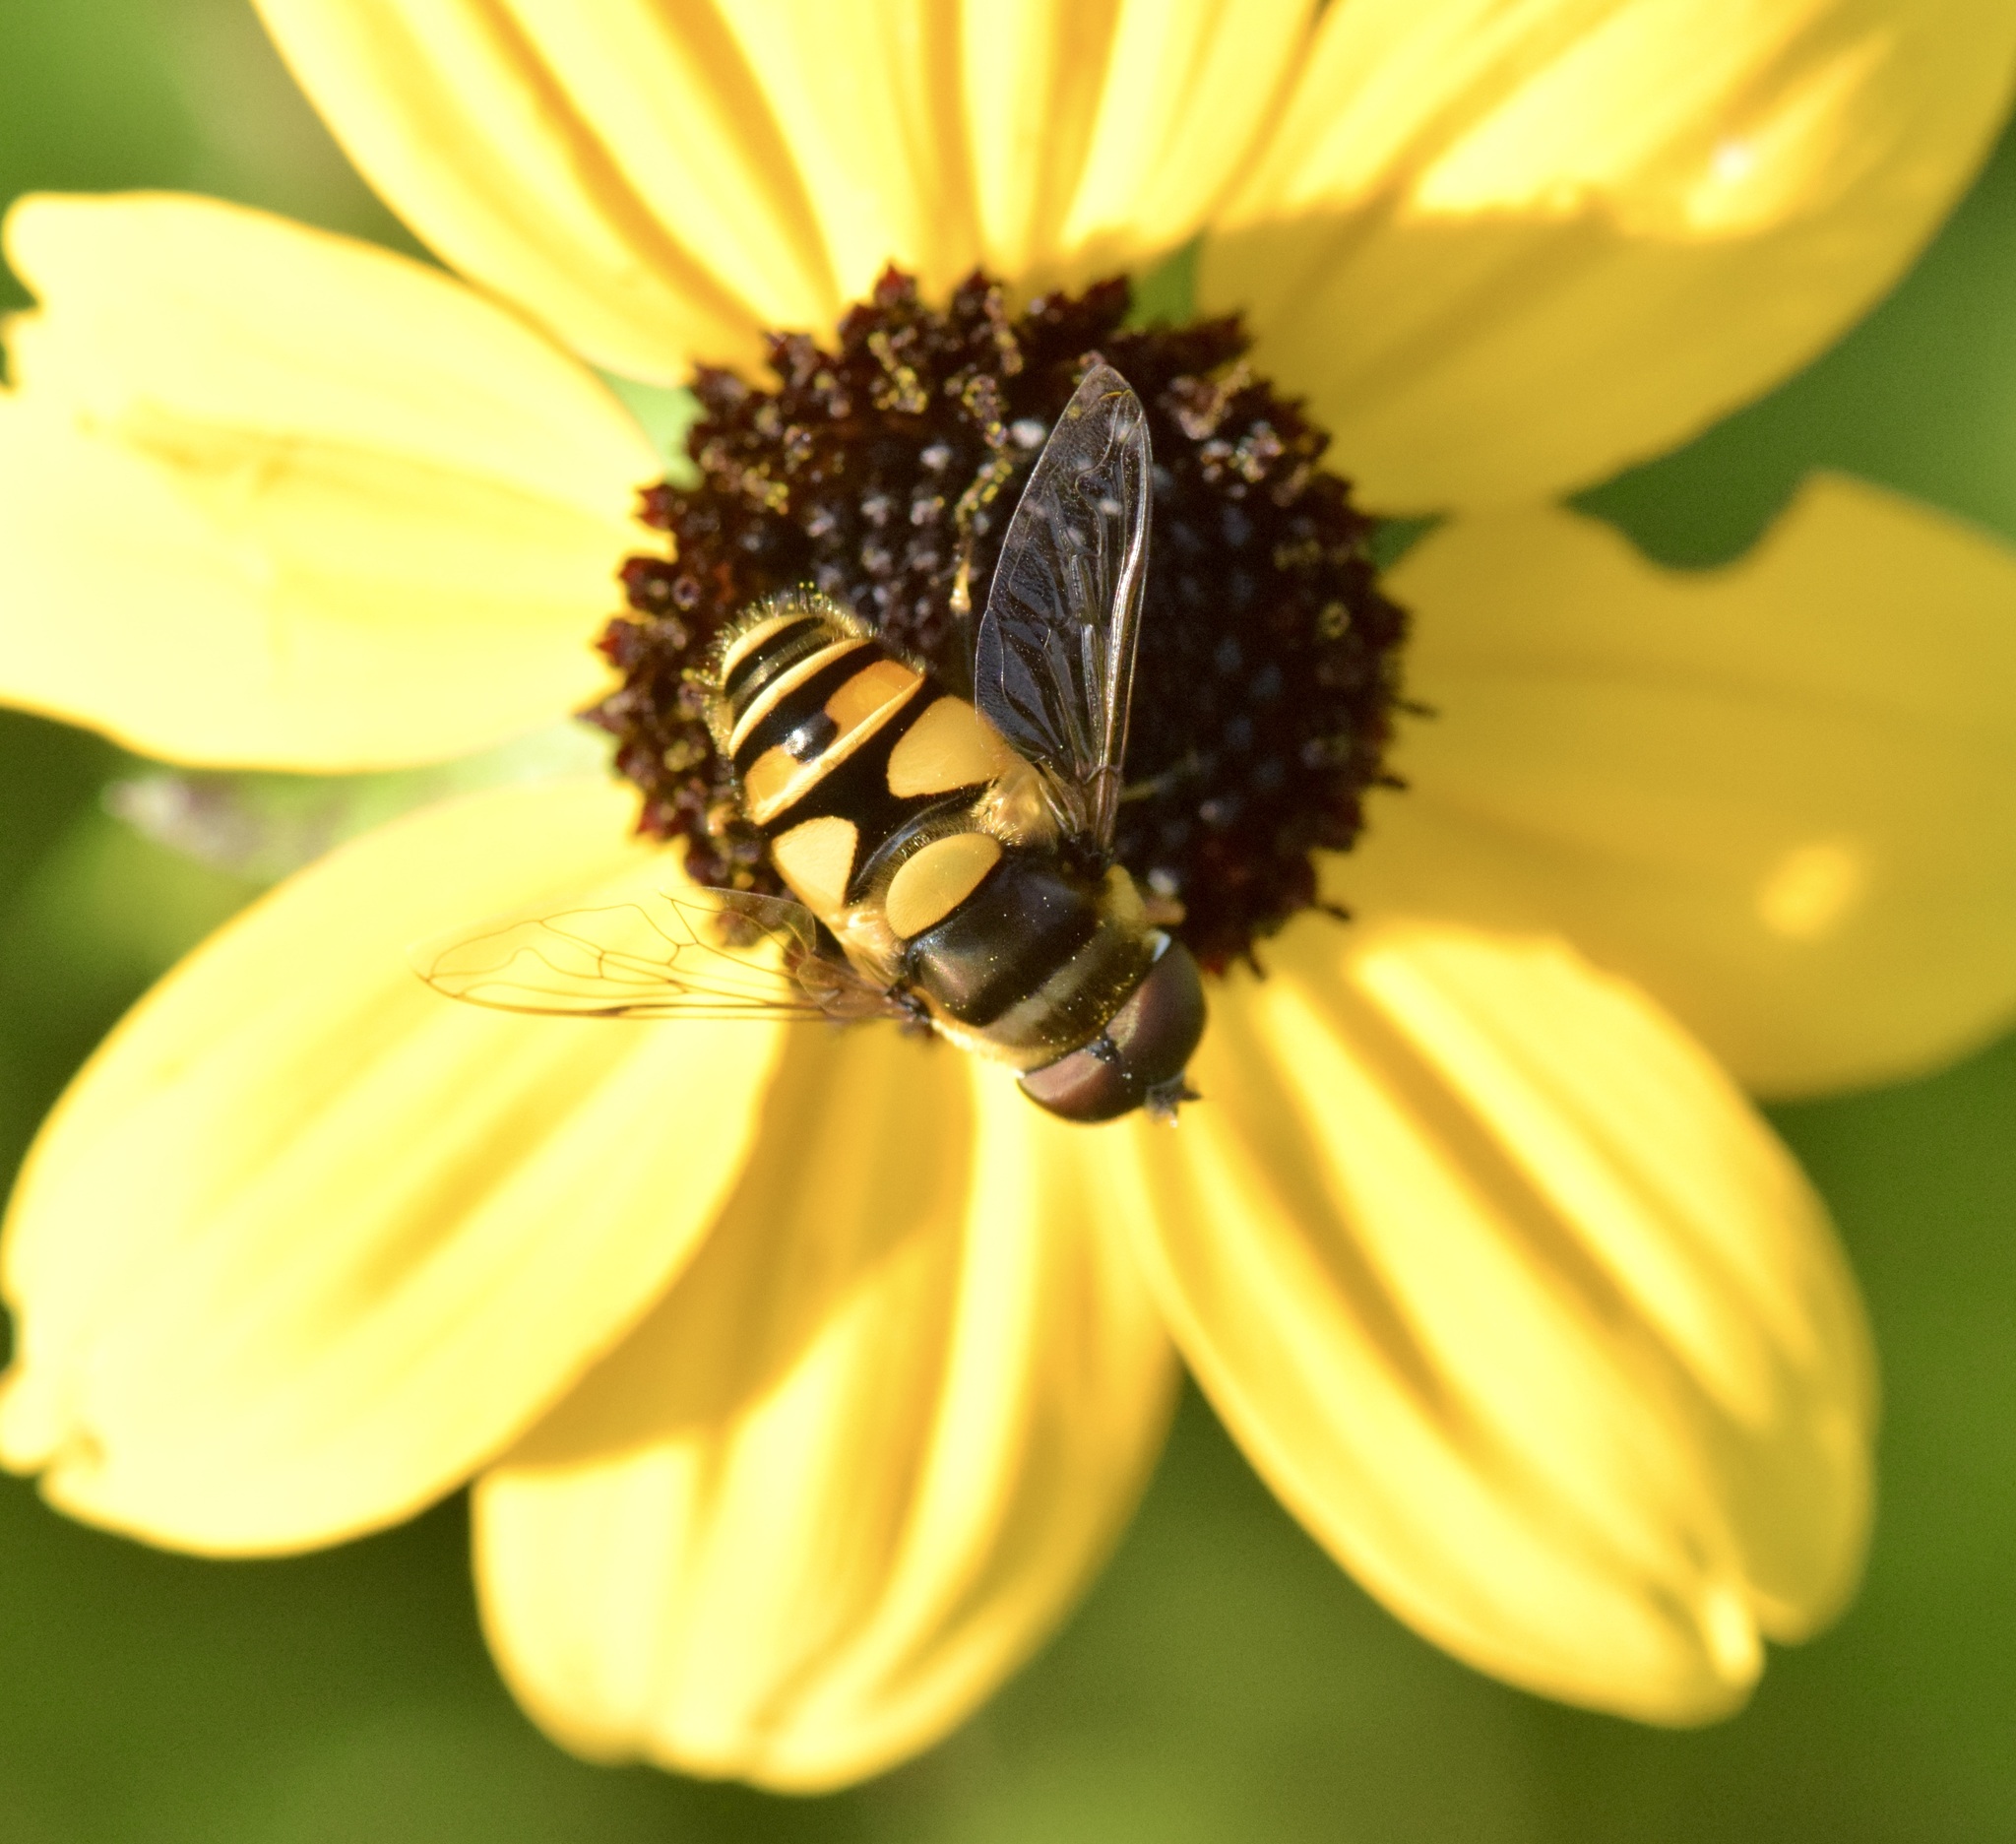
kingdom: Animalia
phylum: Arthropoda
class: Insecta
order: Diptera
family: Syrphidae
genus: Eristalis
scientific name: Eristalis transversa
